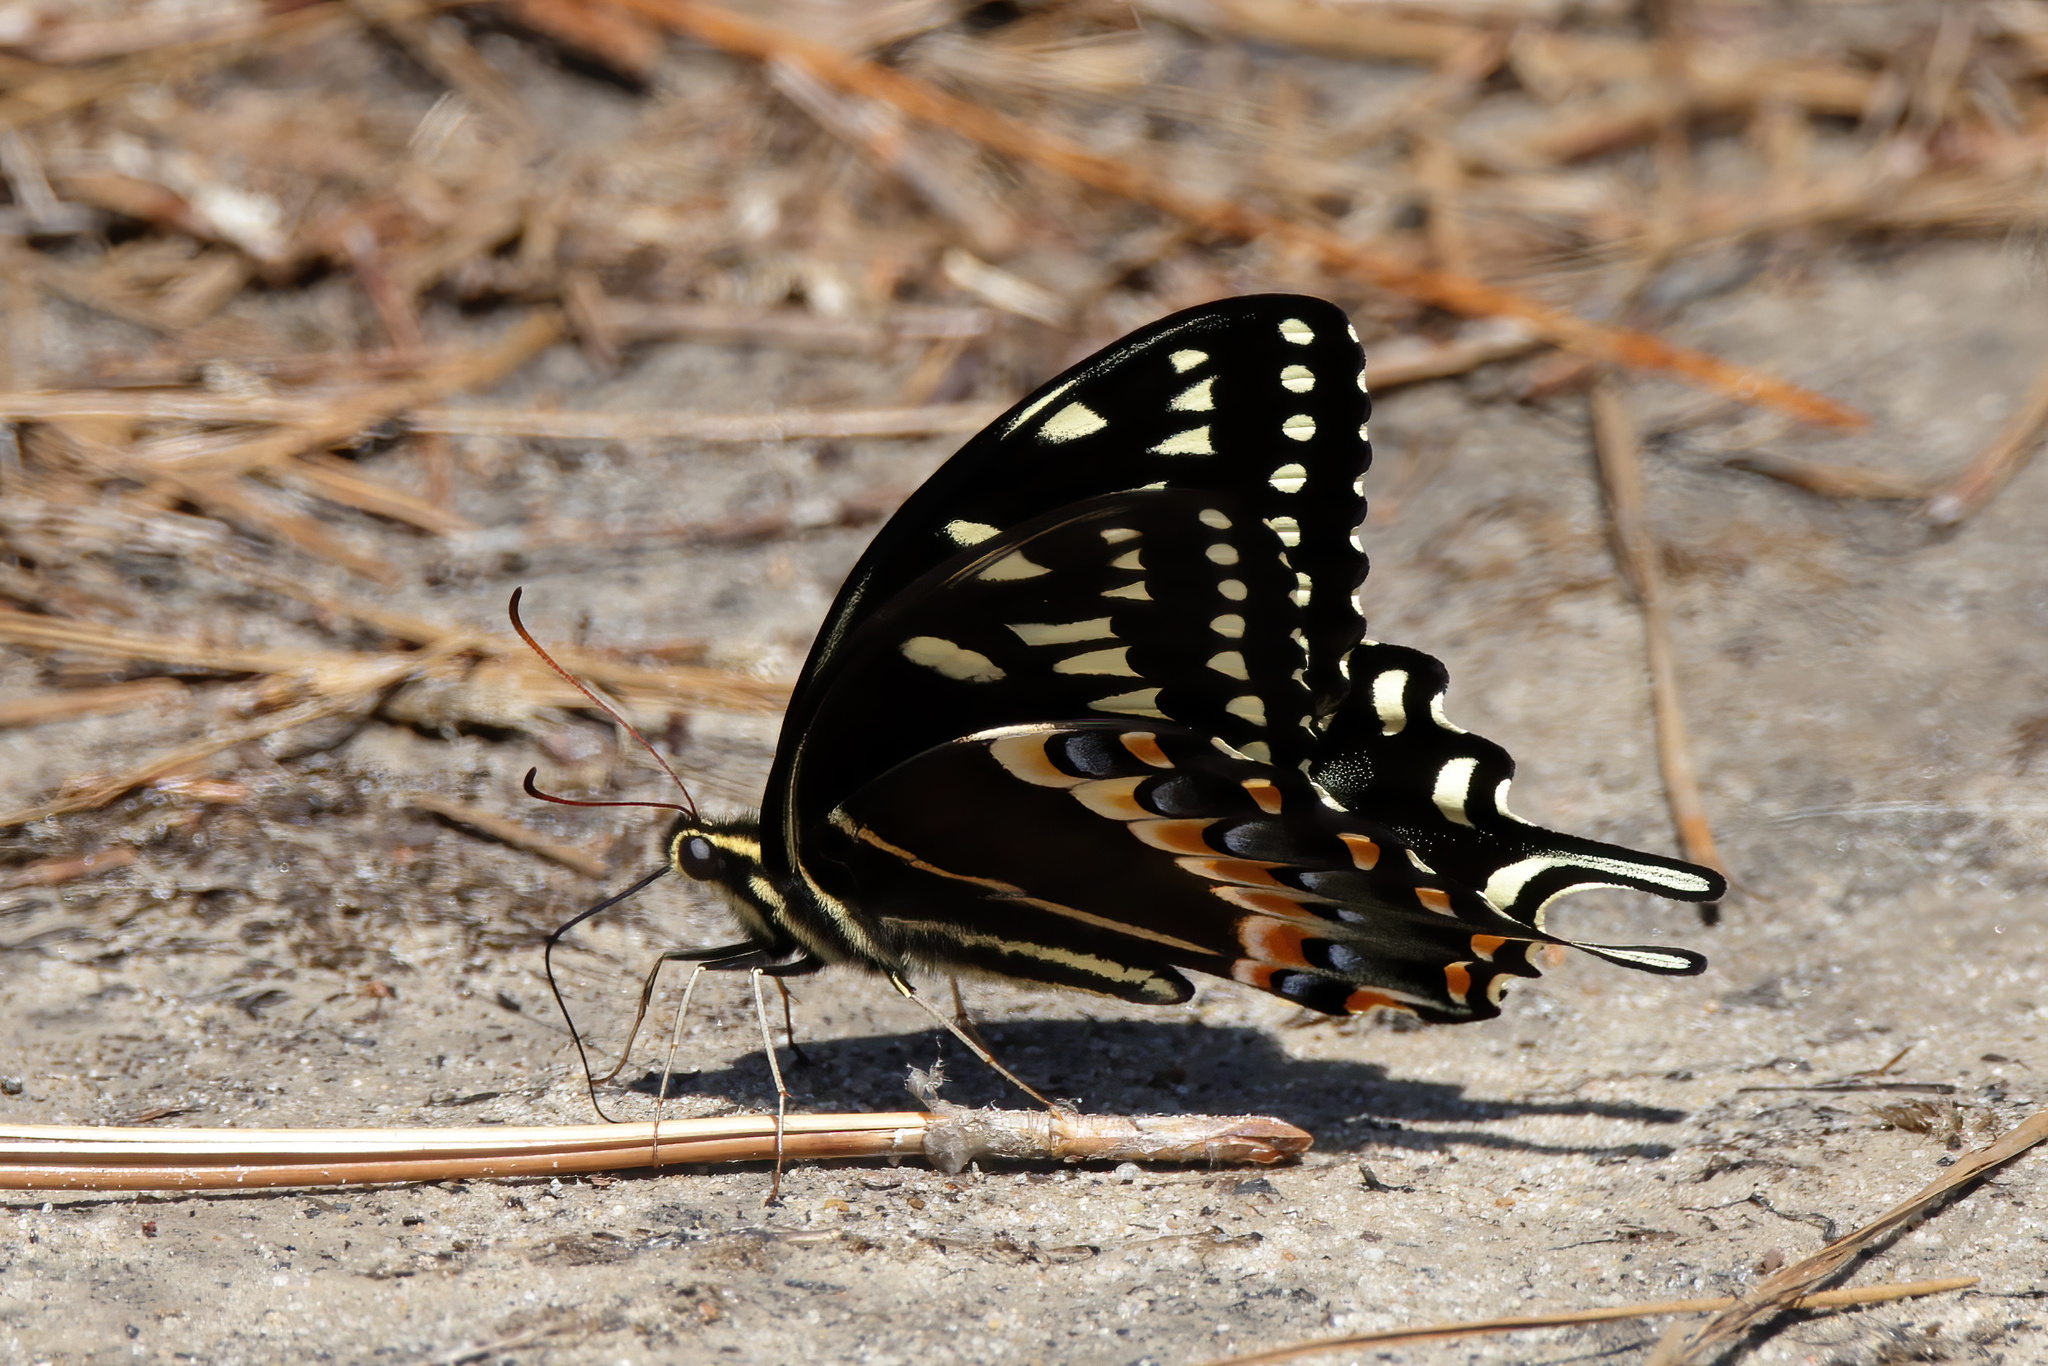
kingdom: Animalia
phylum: Arthropoda
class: Insecta
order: Lepidoptera
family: Papilionidae
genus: Papilio
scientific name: Papilio palamedes
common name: Palamedes swallowtail
